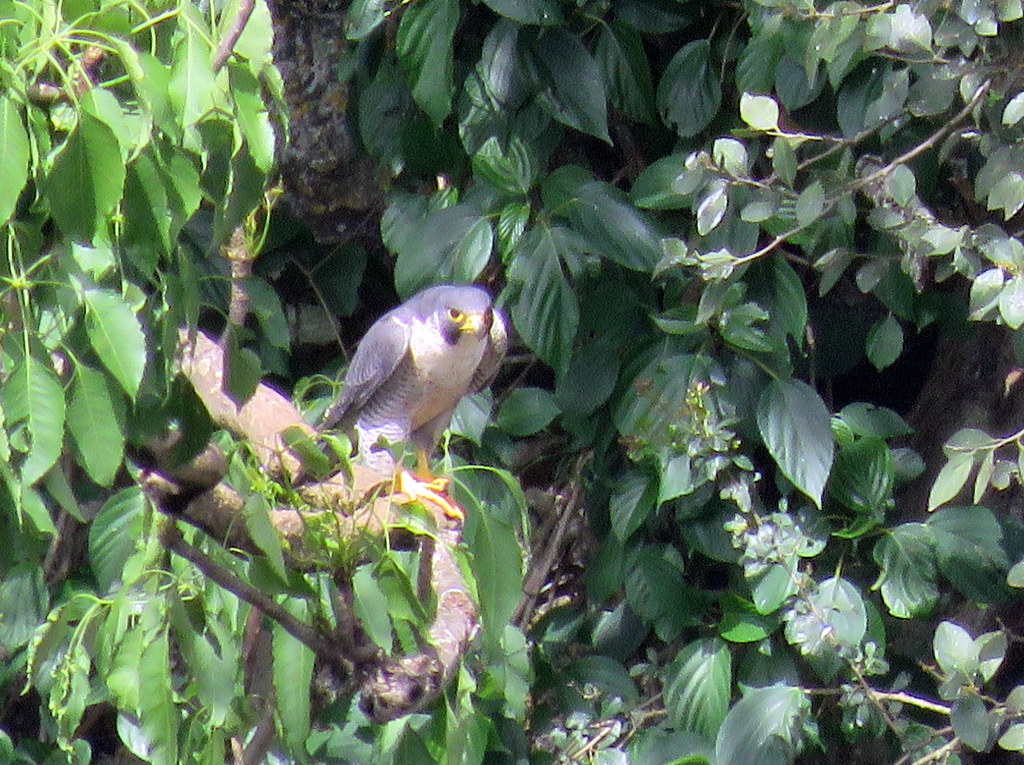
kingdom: Animalia
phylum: Chordata
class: Aves
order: Falconiformes
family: Falconidae
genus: Falco
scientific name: Falco peregrinus
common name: Peregrine falcon
